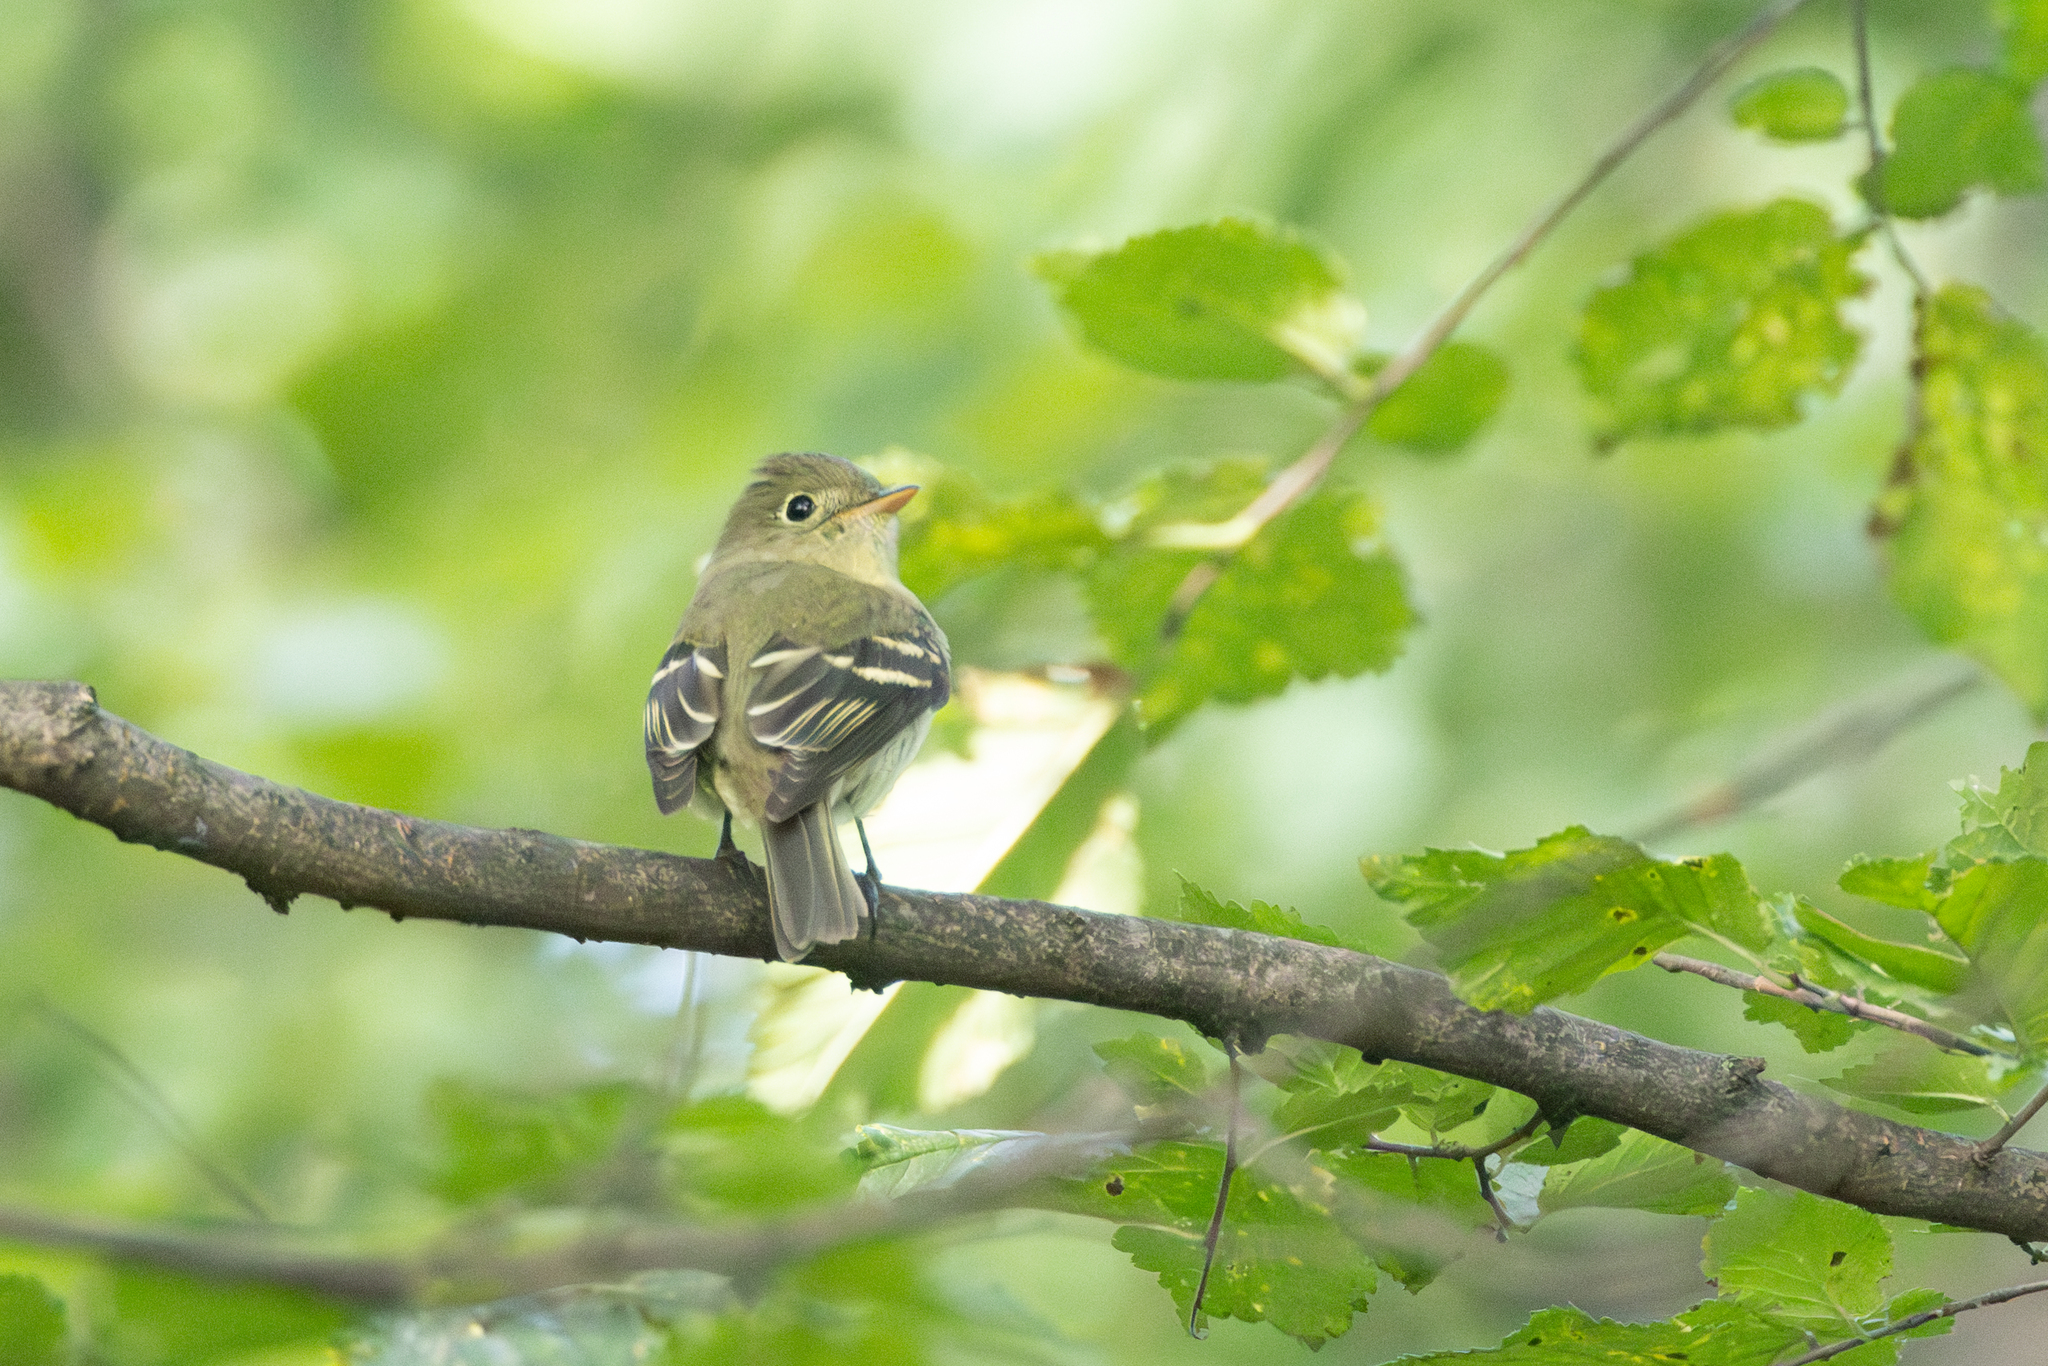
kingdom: Animalia
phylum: Chordata
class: Aves
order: Passeriformes
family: Tyrannidae
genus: Empidonax
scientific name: Empidonax flaviventris
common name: Yellow-bellied flycatcher
